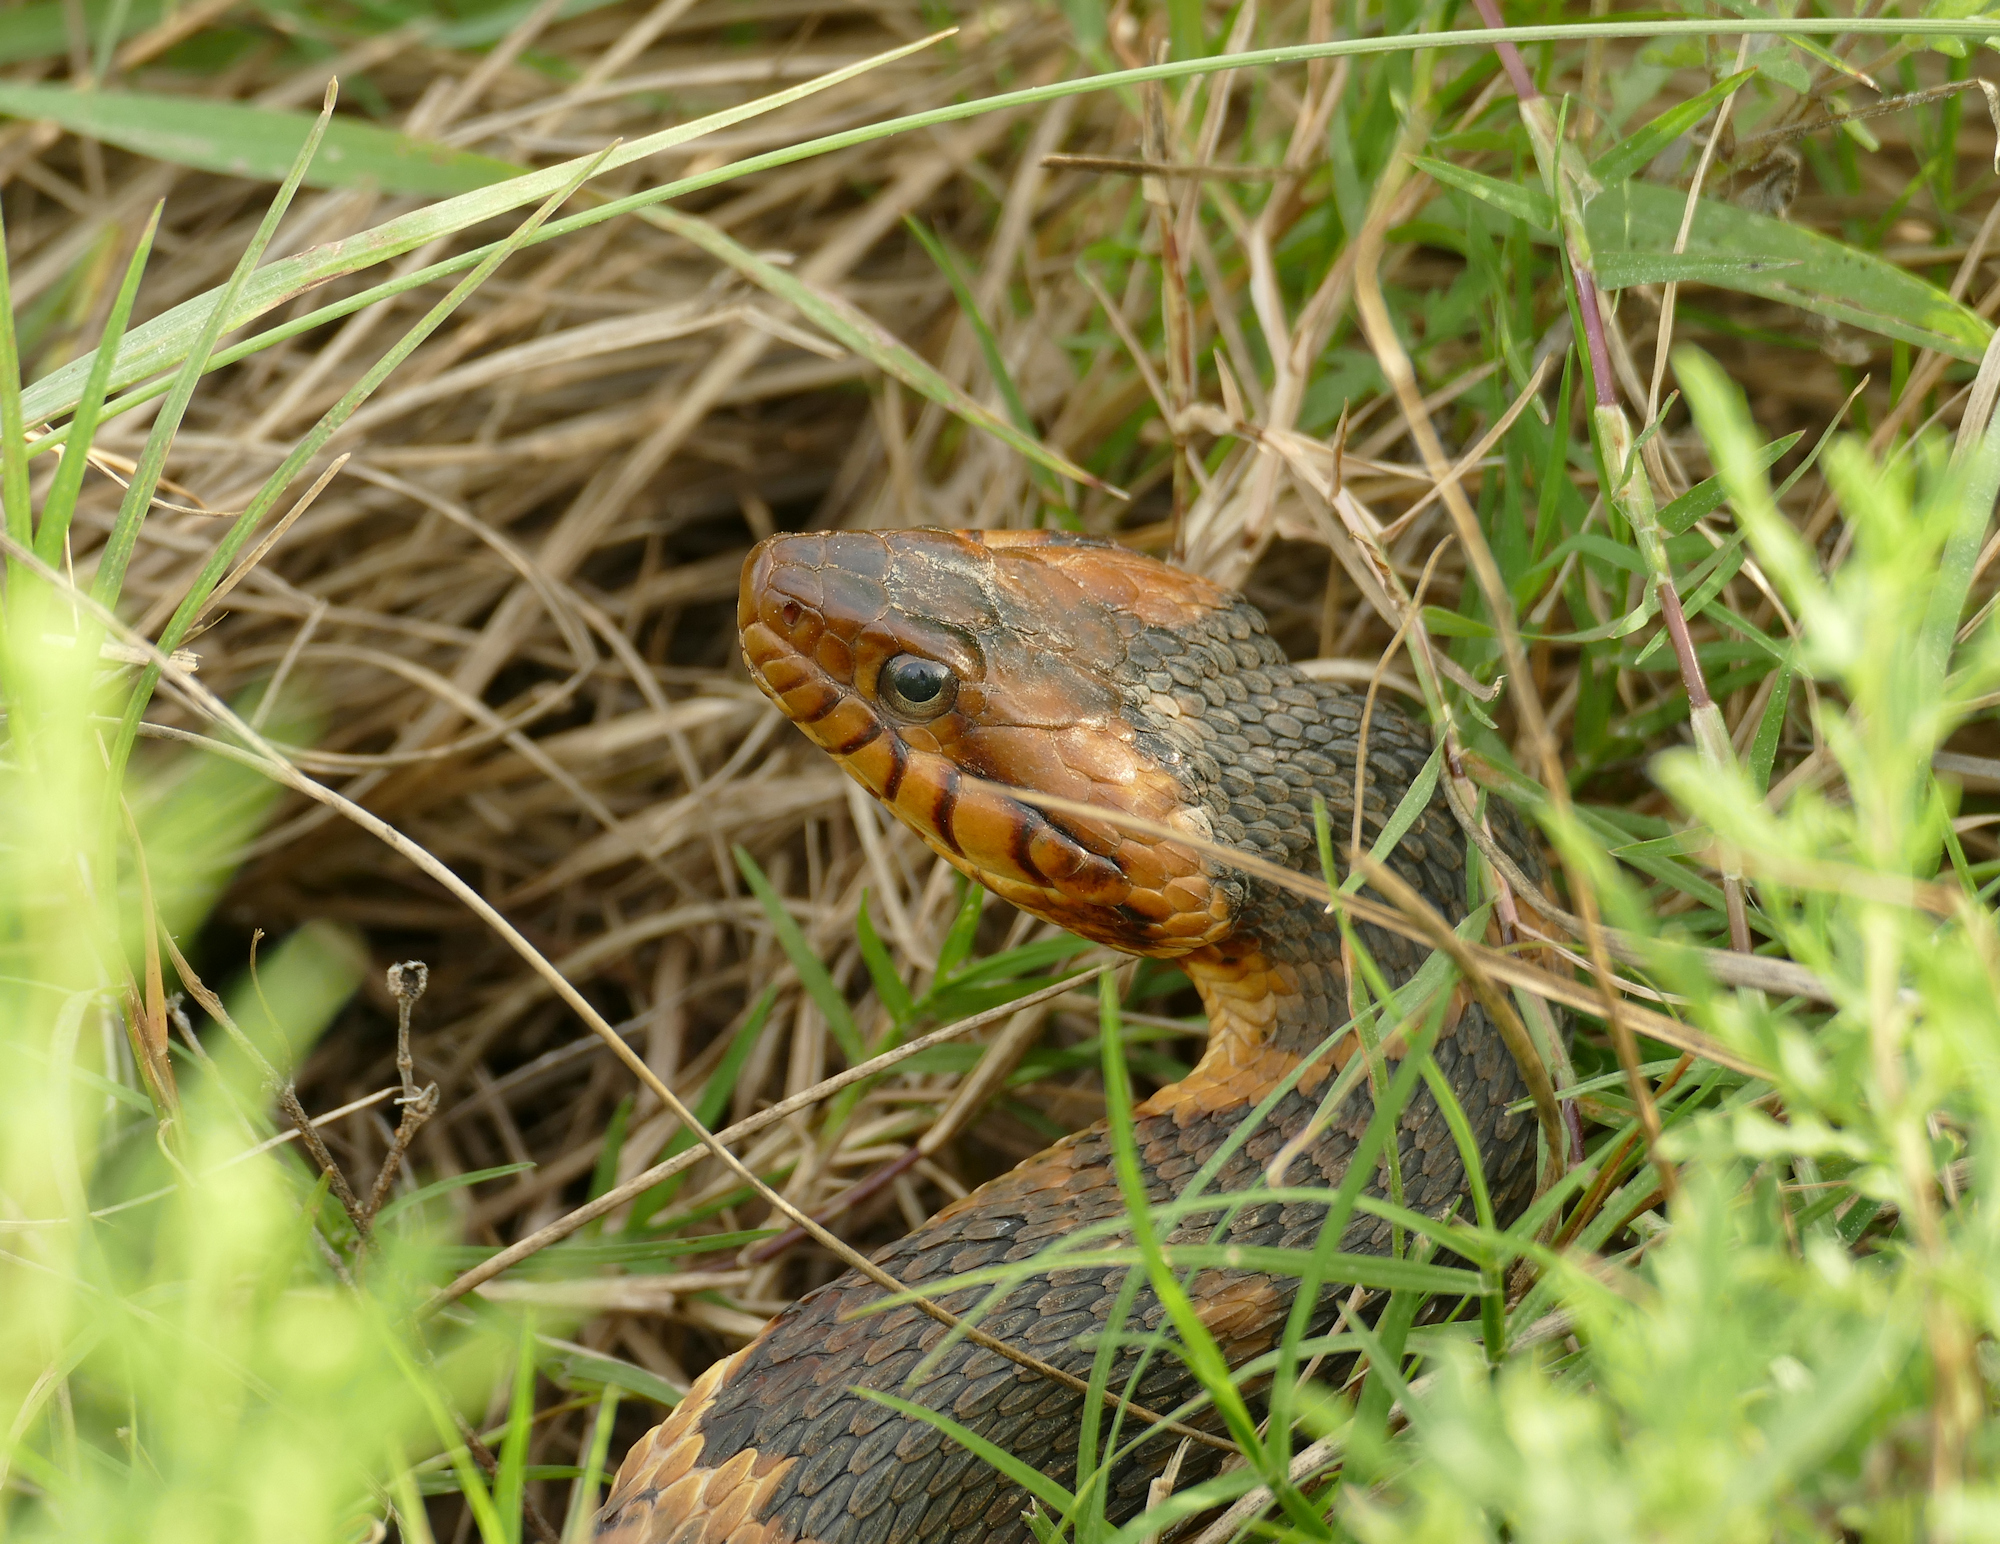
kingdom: Animalia
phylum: Chordata
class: Squamata
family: Colubridae
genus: Nerodia
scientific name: Nerodia fasciata
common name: Southern water snake
